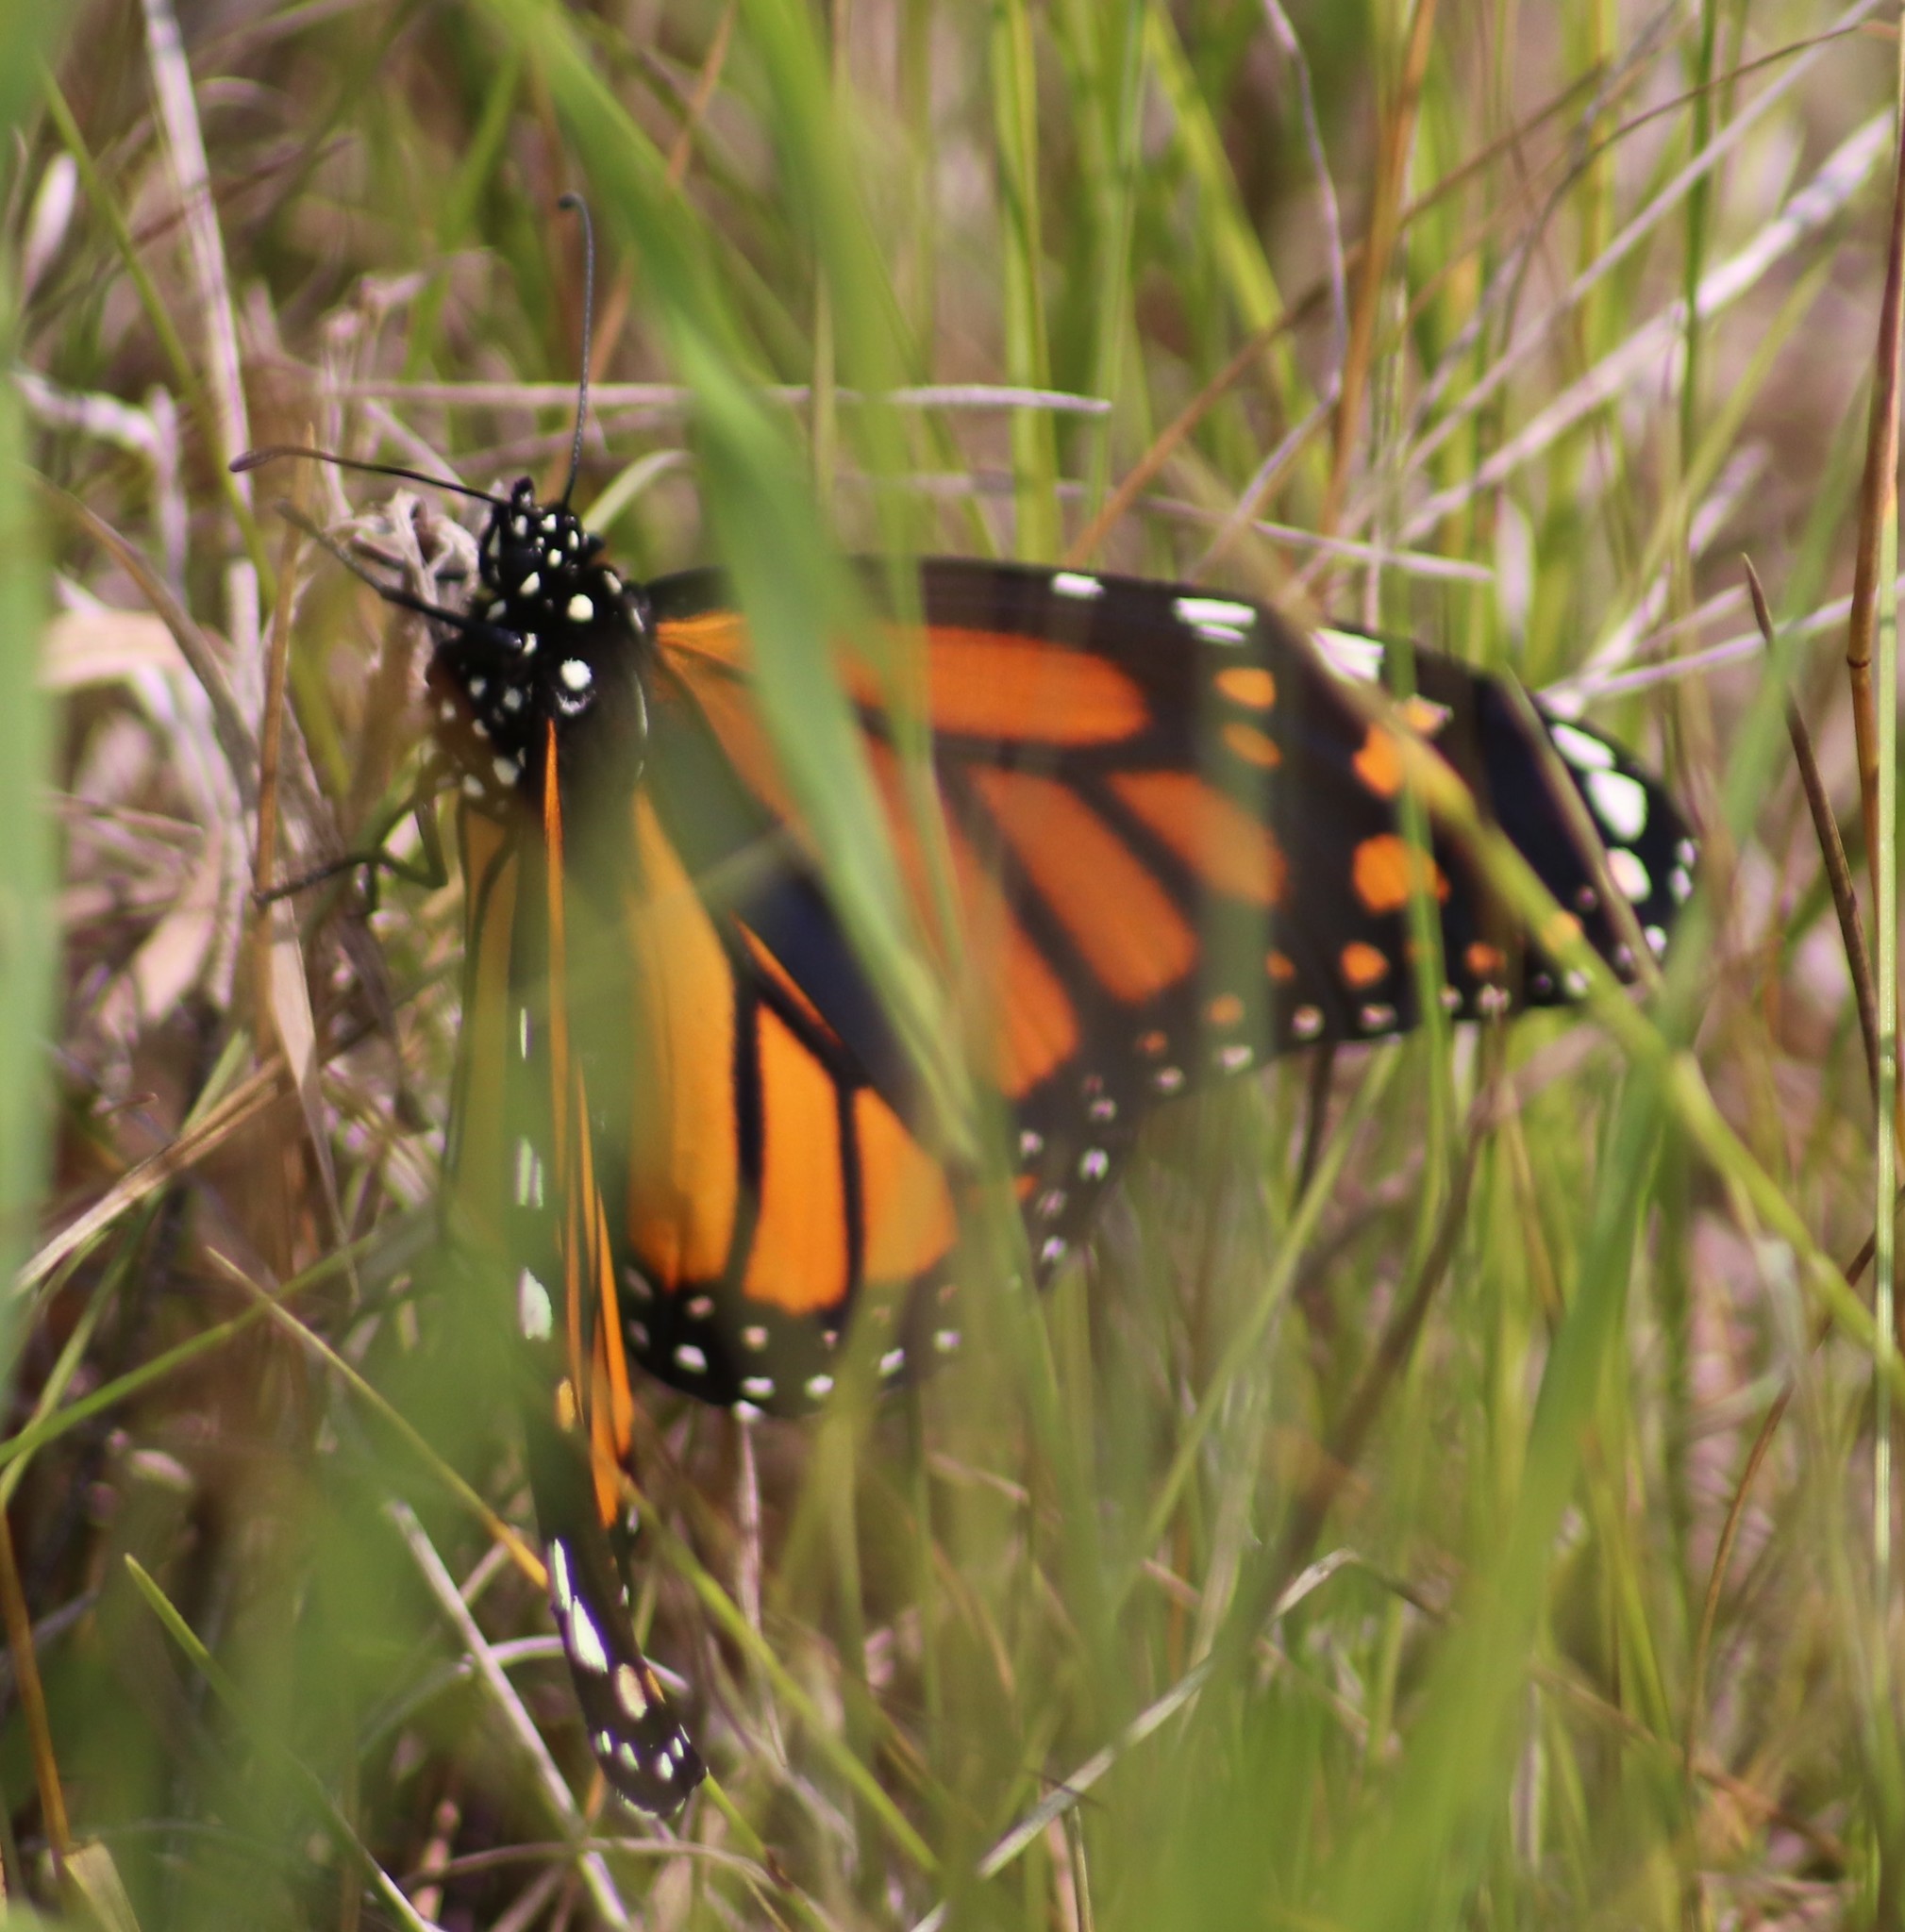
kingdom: Animalia
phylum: Arthropoda
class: Insecta
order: Lepidoptera
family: Nymphalidae
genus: Danaus
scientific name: Danaus plexippus
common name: Monarch
